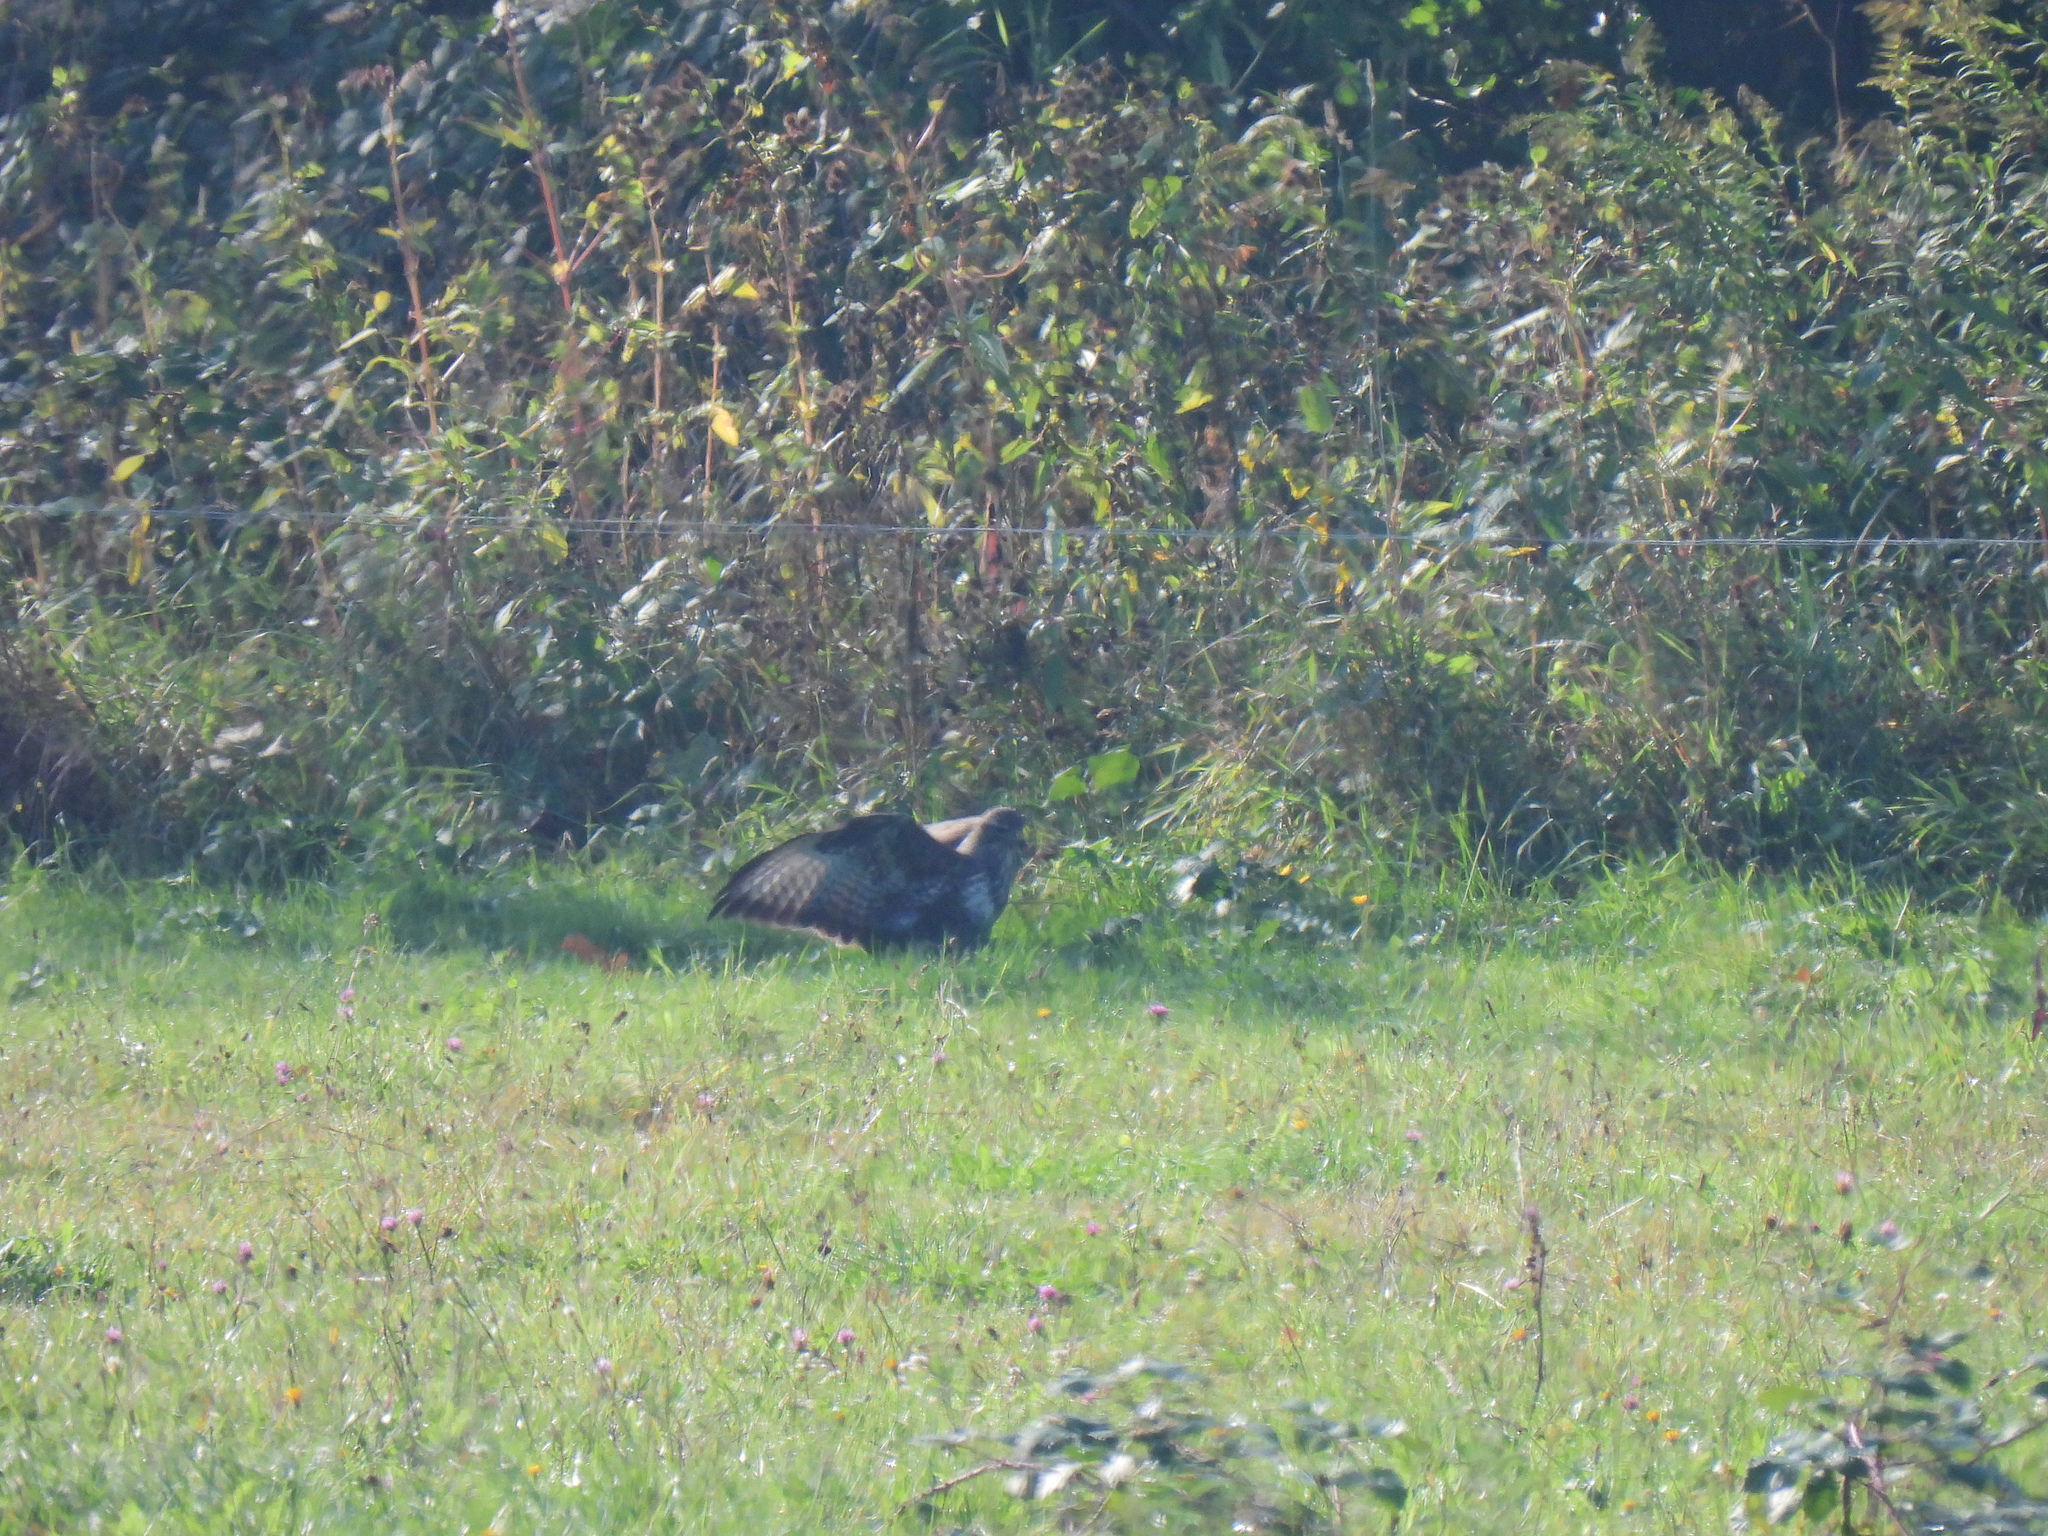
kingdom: Animalia
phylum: Chordata
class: Aves
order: Accipitriformes
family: Accipitridae
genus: Buteo
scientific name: Buteo buteo
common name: Common buzzard
